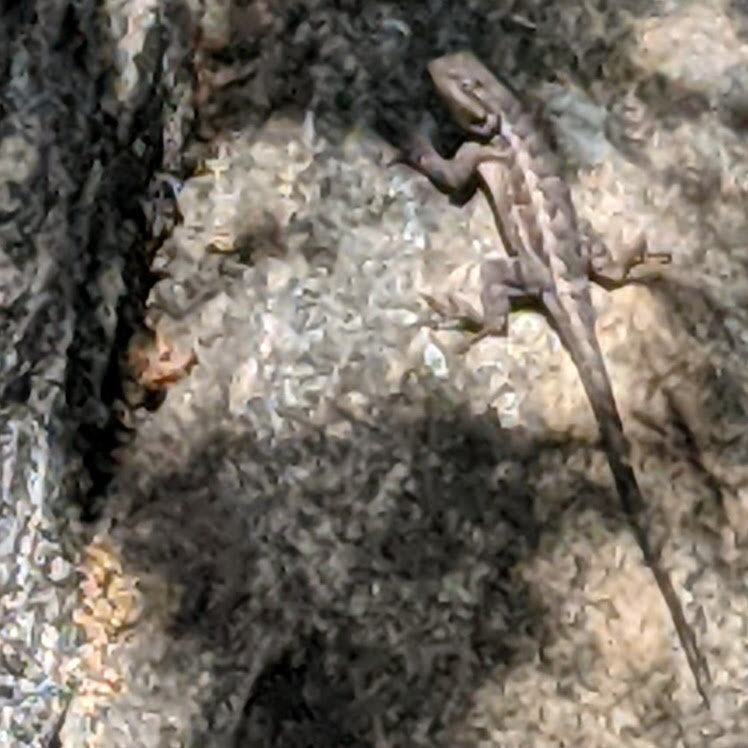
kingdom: Animalia
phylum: Chordata
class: Squamata
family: Phrynosomatidae
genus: Sceloporus
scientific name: Sceloporus occidentalis
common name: Western fence lizard
